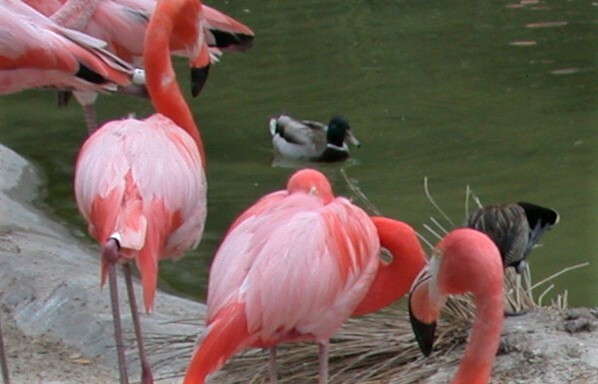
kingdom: Animalia
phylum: Chordata
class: Aves
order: Anseriformes
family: Anatidae
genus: Anas
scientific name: Anas platyrhynchos
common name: Mallard
